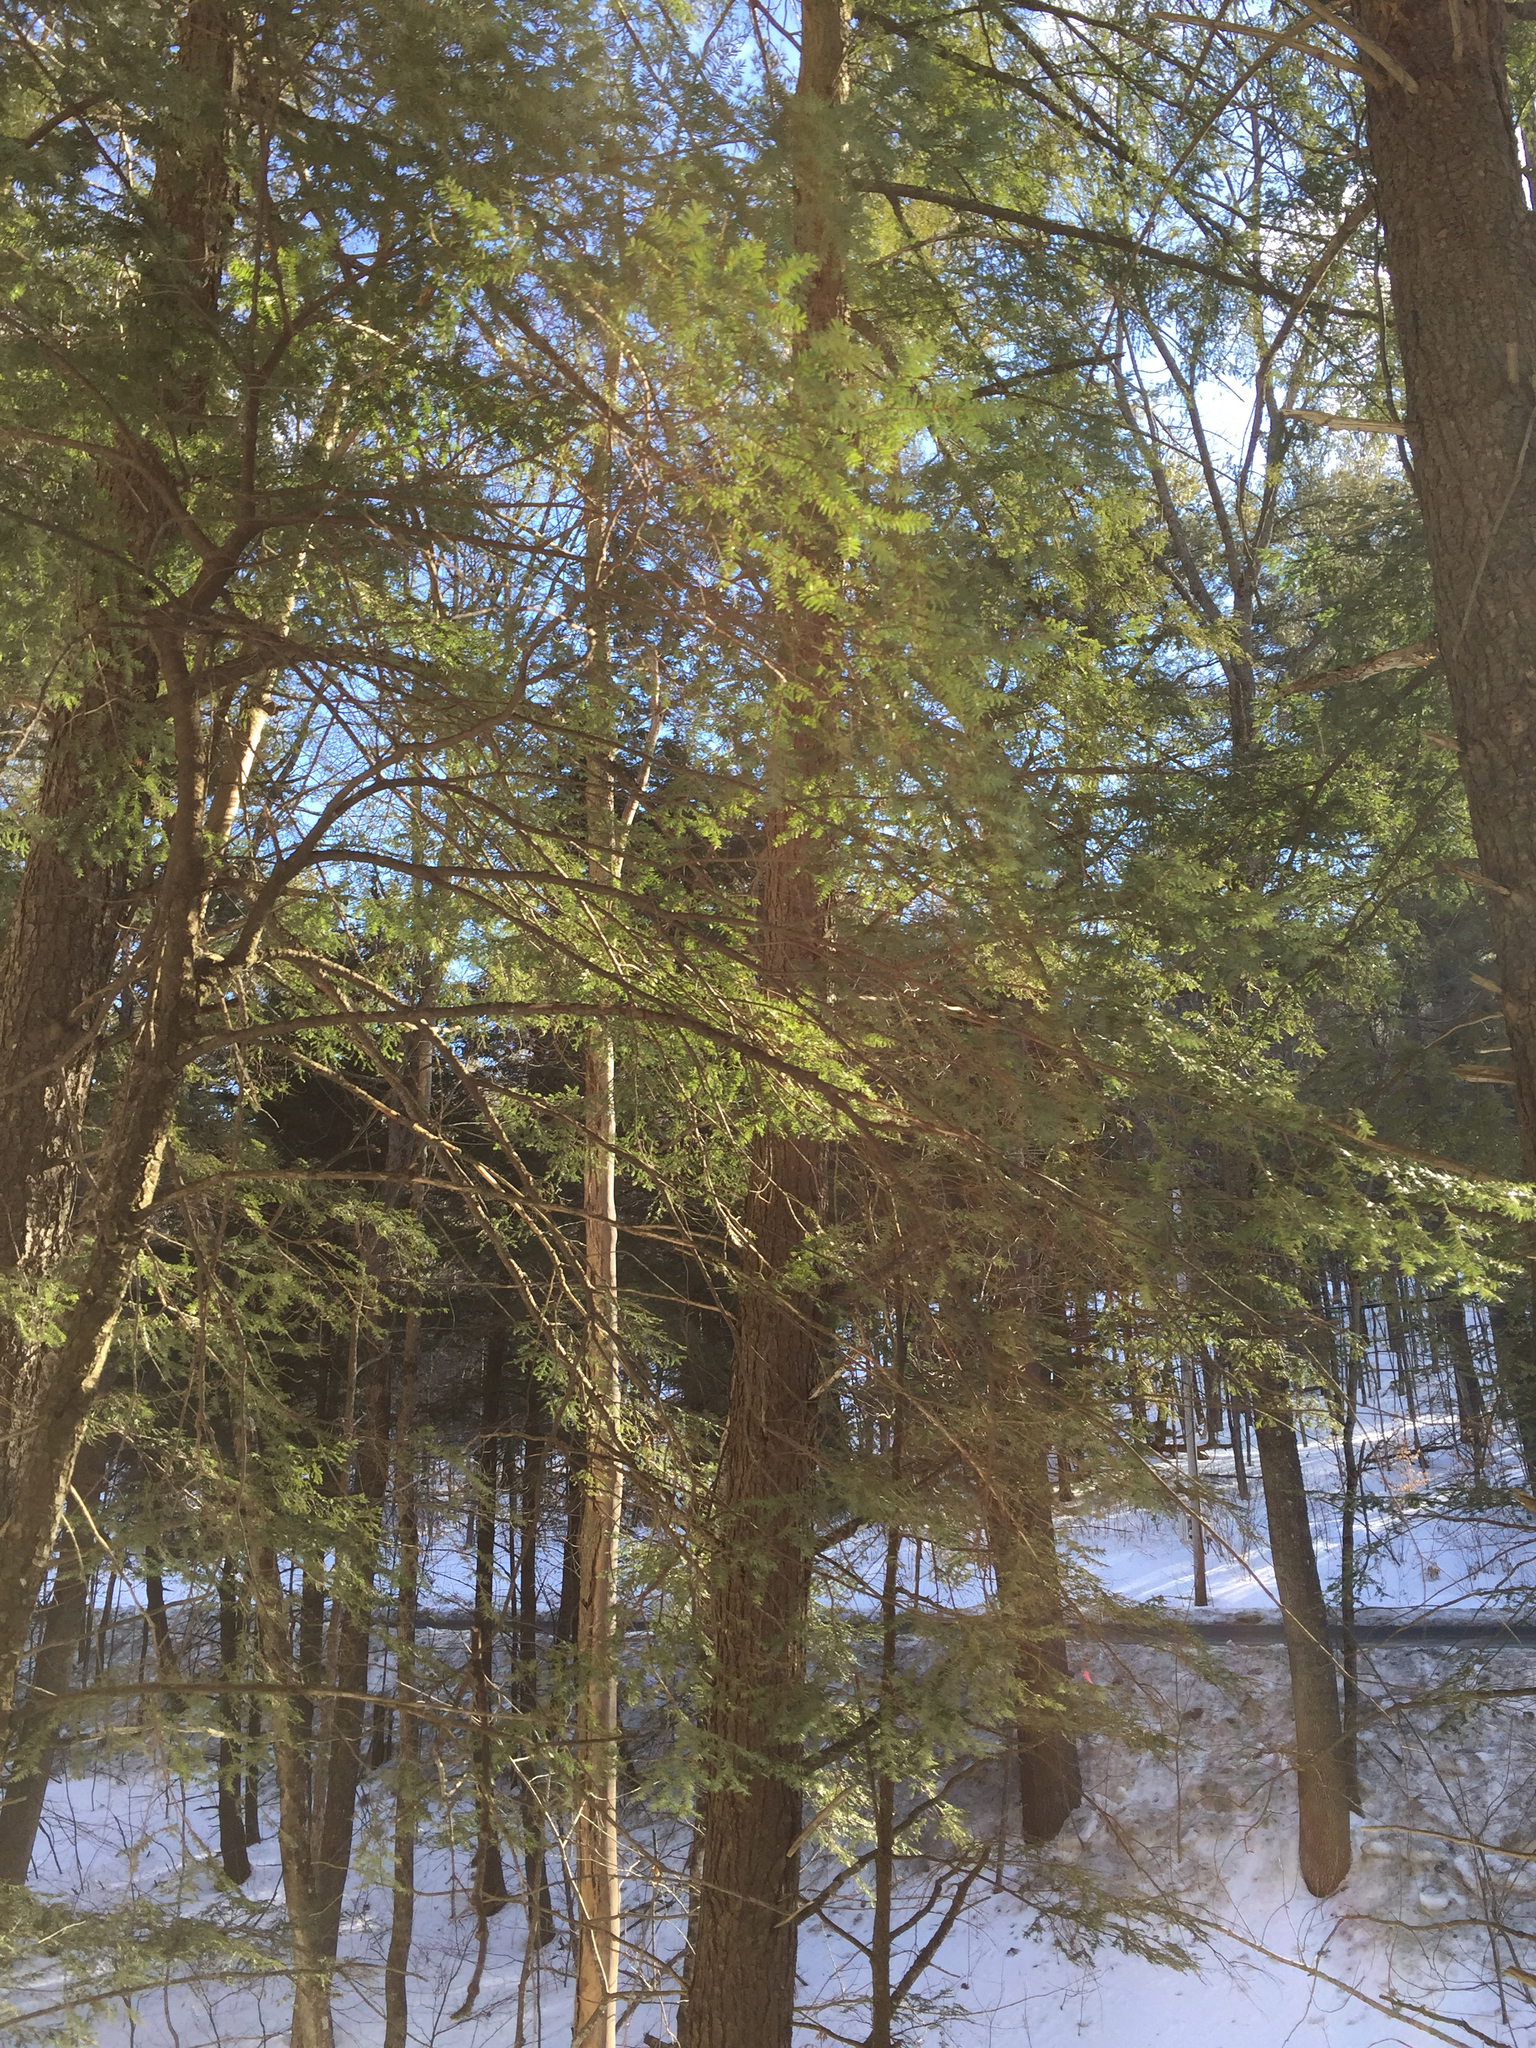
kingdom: Plantae
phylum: Tracheophyta
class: Pinopsida
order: Pinales
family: Pinaceae
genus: Tsuga
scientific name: Tsuga canadensis
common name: Eastern hemlock
